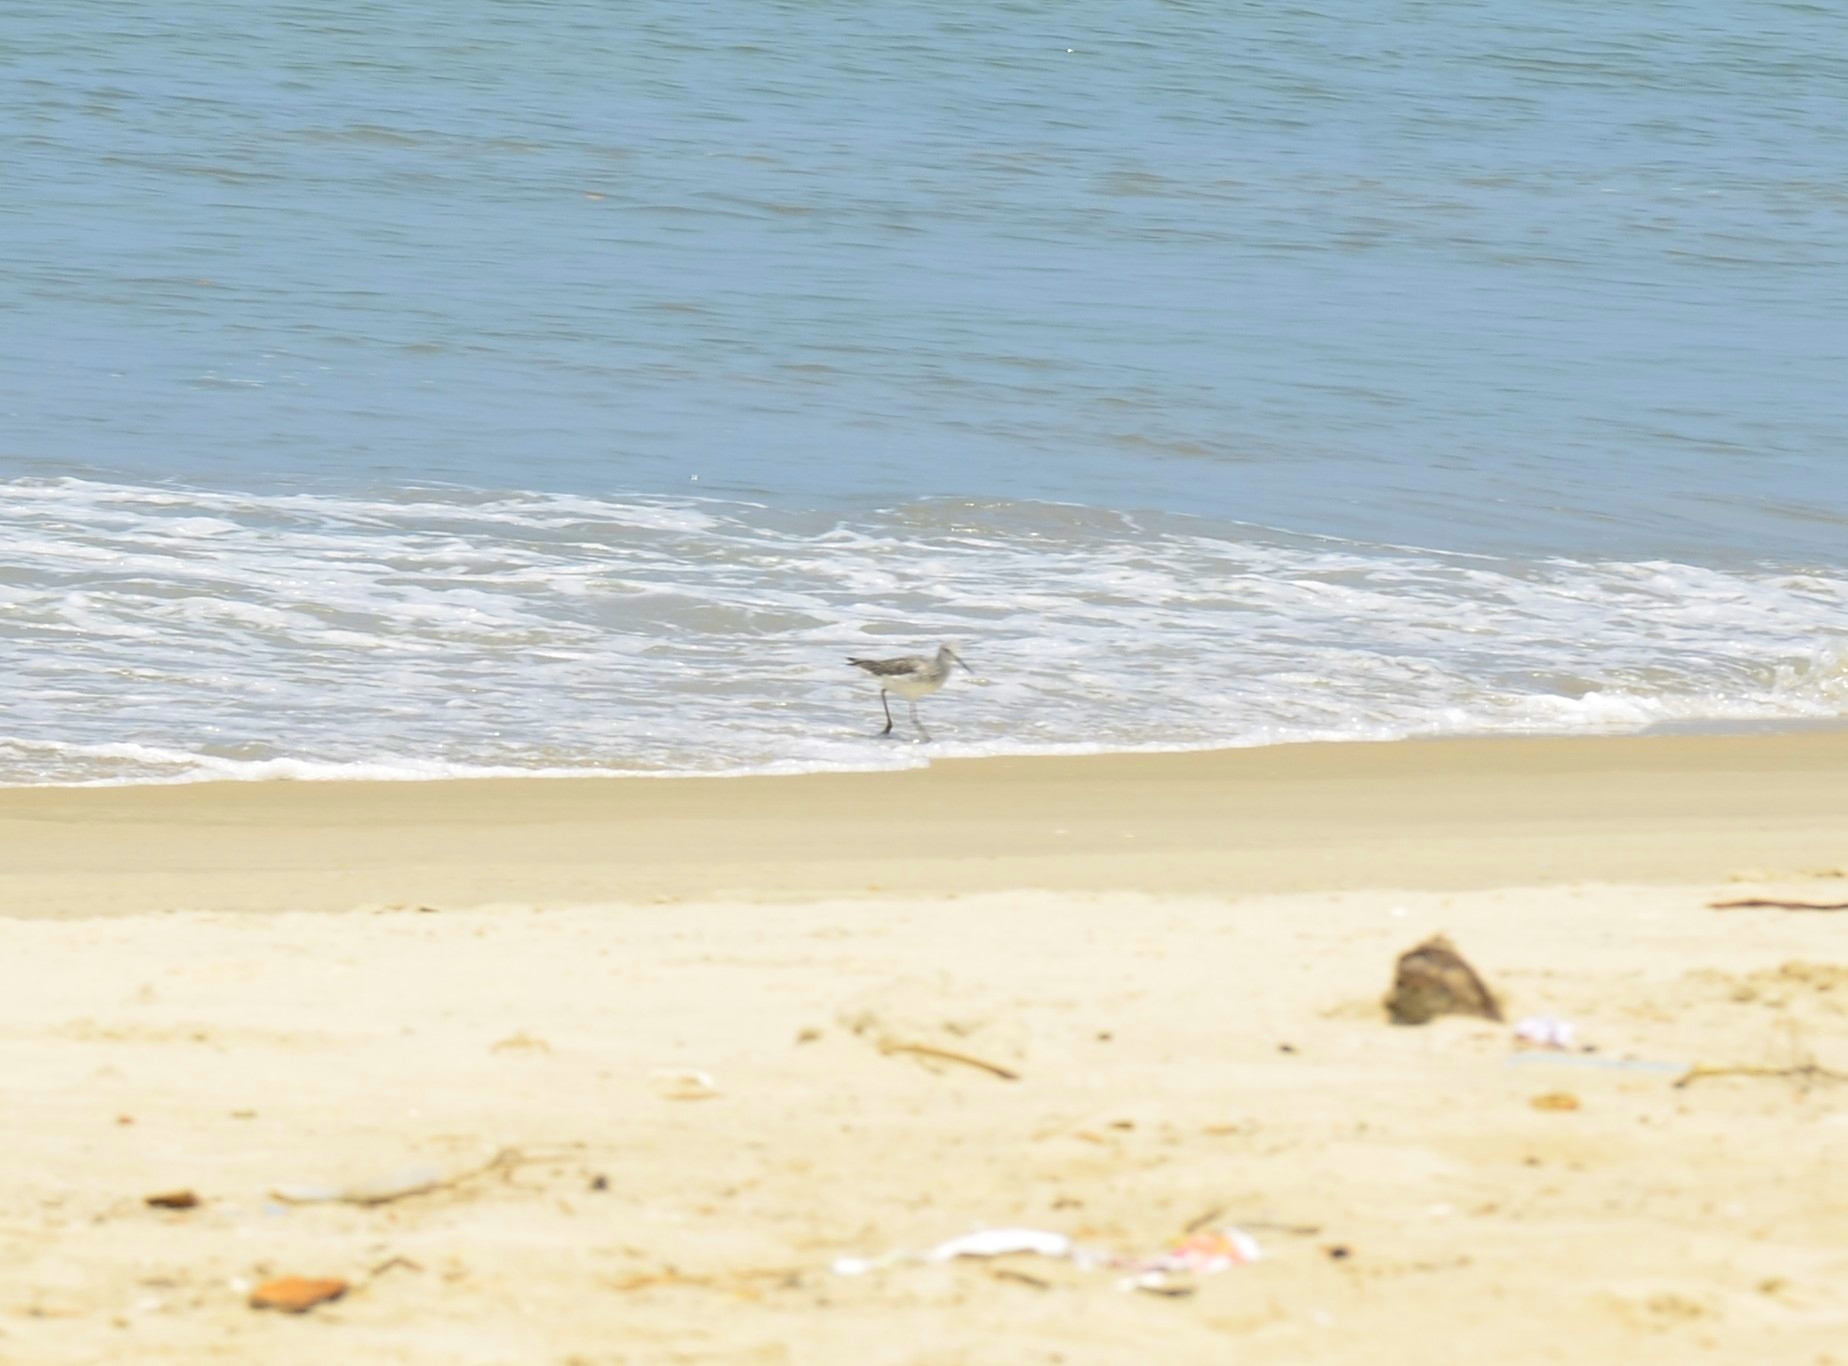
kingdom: Animalia
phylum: Chordata
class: Aves
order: Charadriiformes
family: Scolopacidae
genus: Tringa
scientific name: Tringa nebularia
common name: Common greenshank
